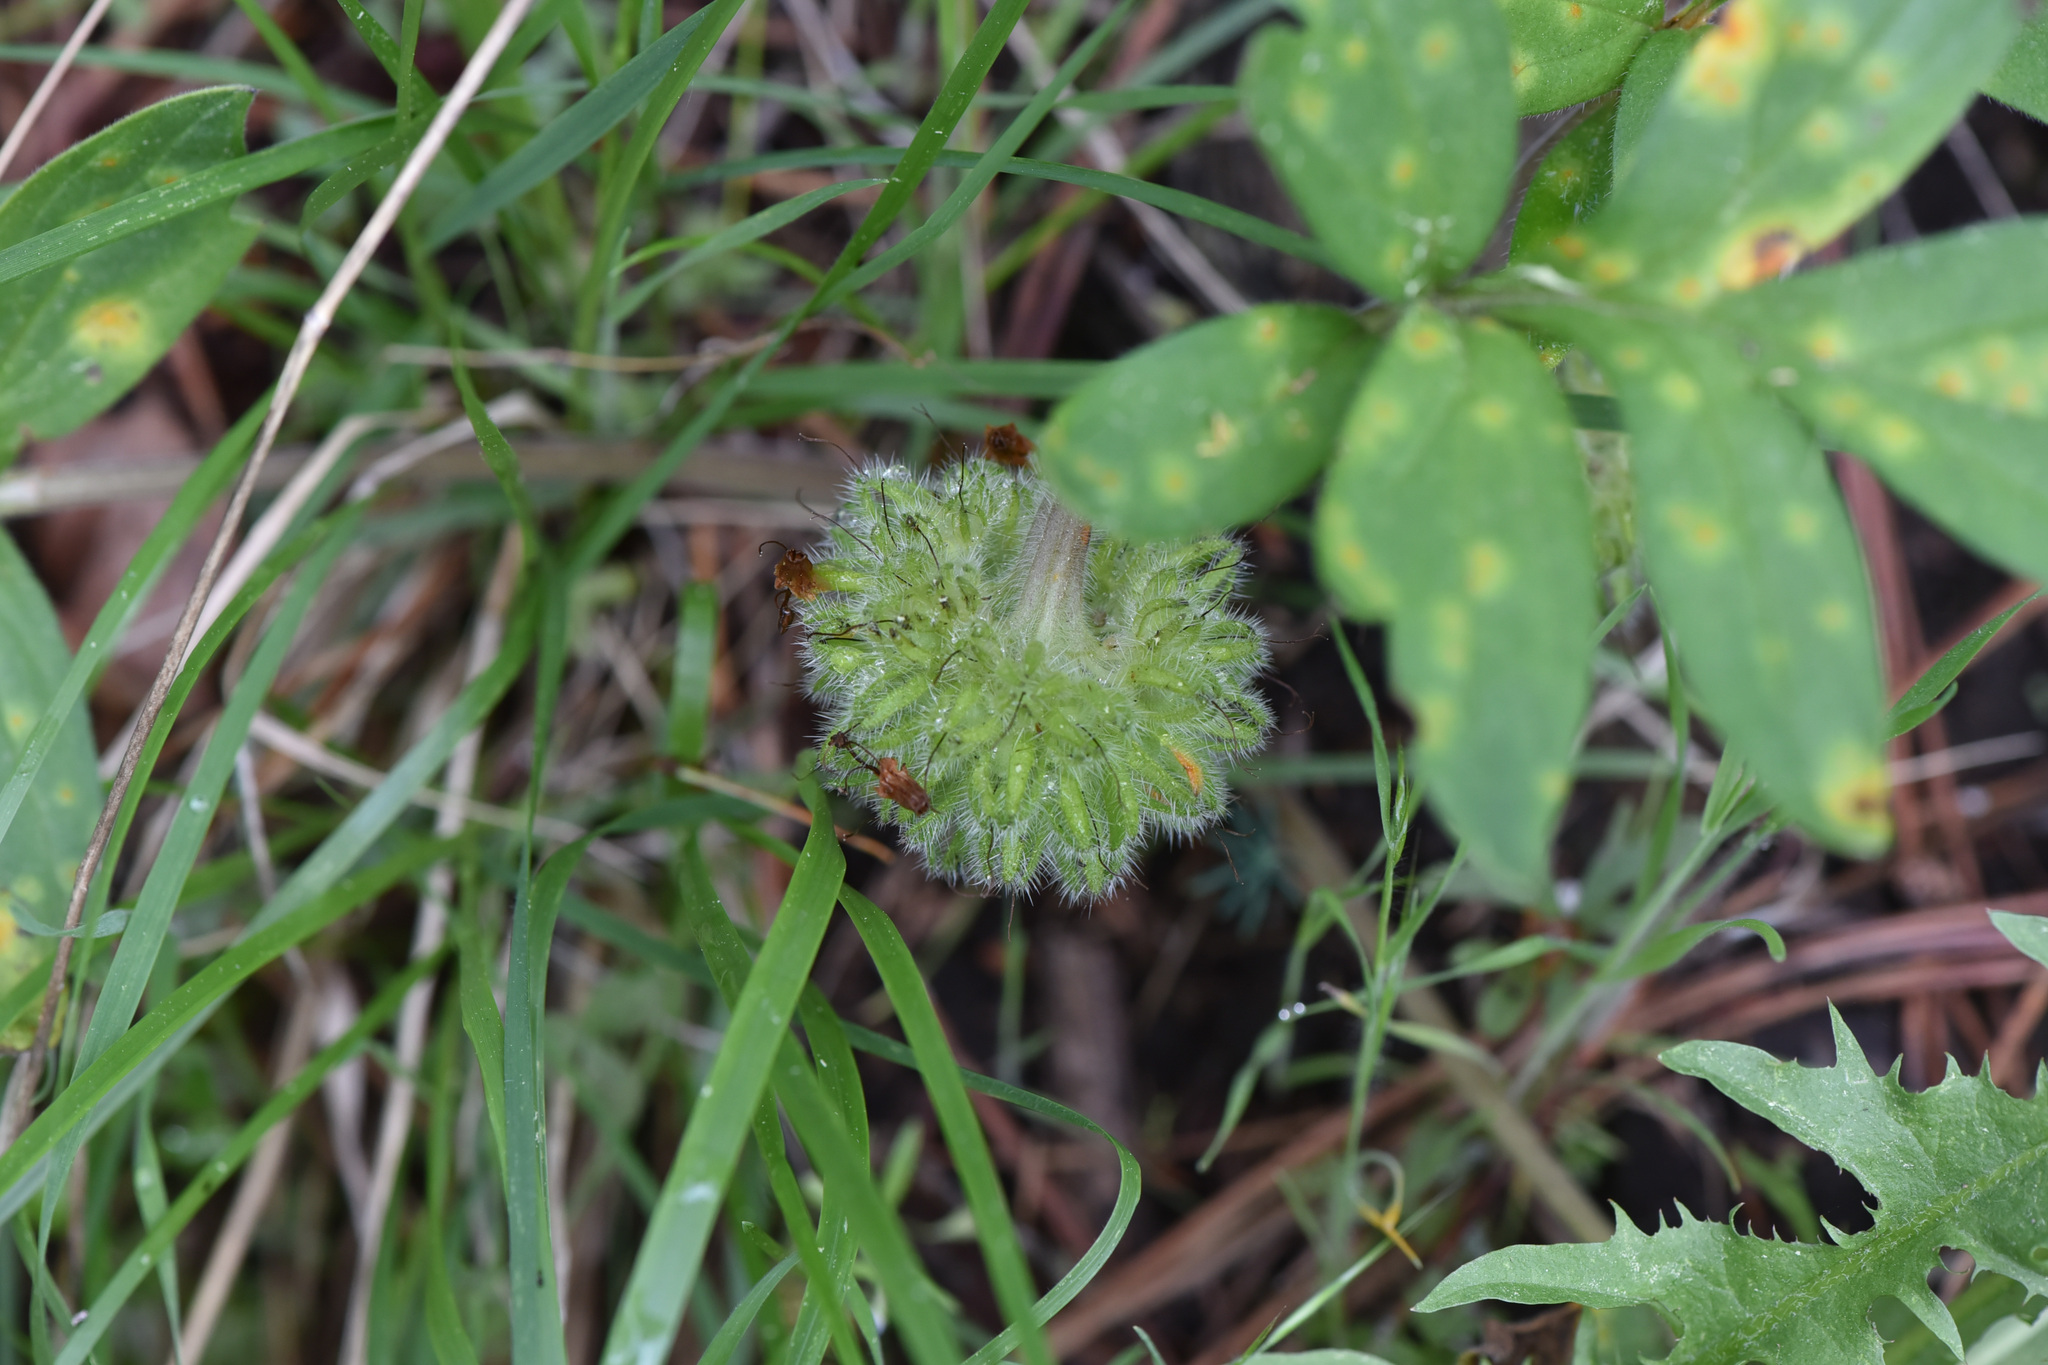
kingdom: Plantae
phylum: Tracheophyta
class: Magnoliopsida
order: Boraginales
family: Hydrophyllaceae
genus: Hydrophyllum
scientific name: Hydrophyllum capitatum
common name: Woollen-breeches
